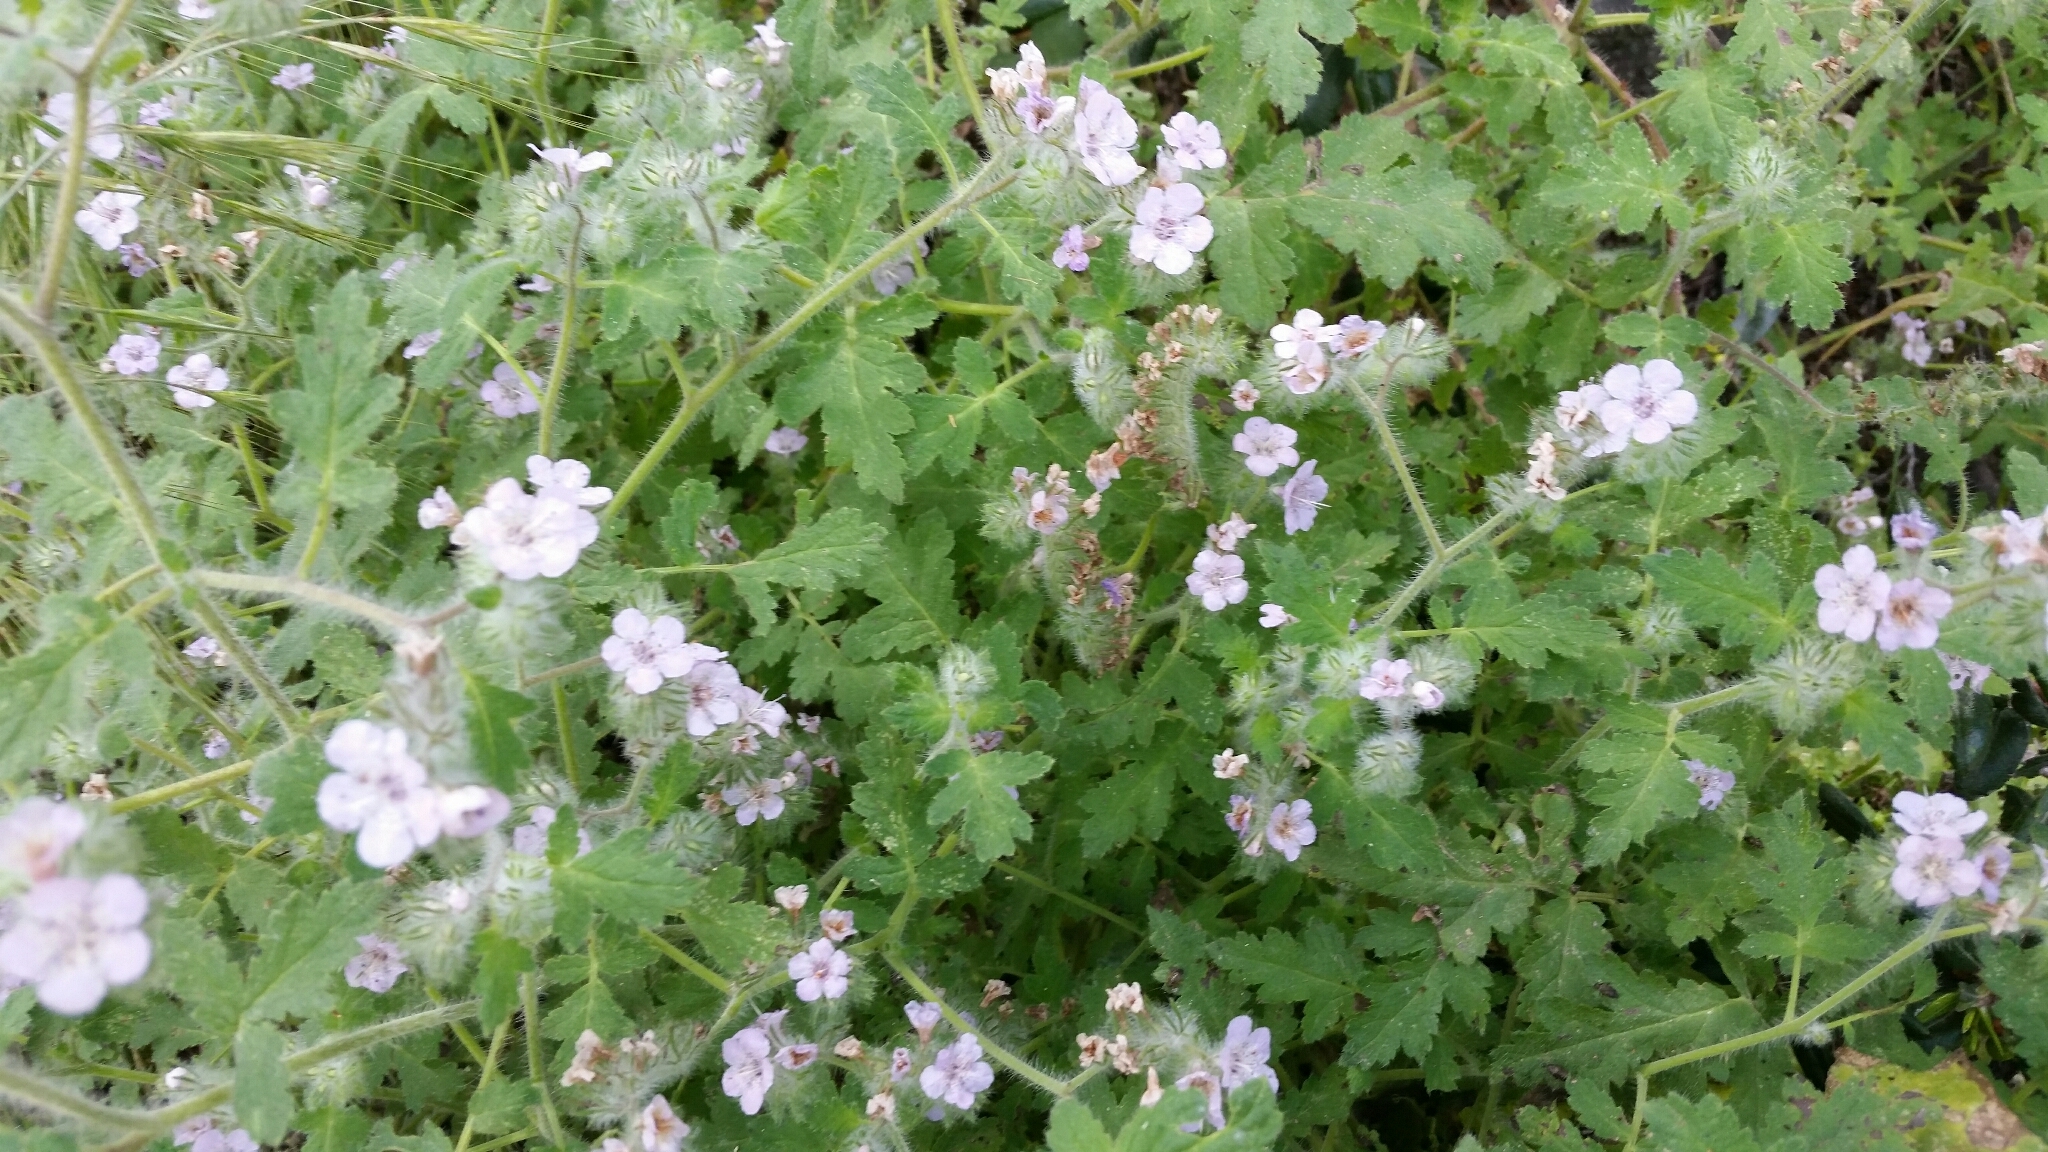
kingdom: Plantae
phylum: Tracheophyta
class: Magnoliopsida
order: Boraginales
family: Hydrophyllaceae
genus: Phacelia
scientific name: Phacelia cicutaria
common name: Caterpillar phacelia
